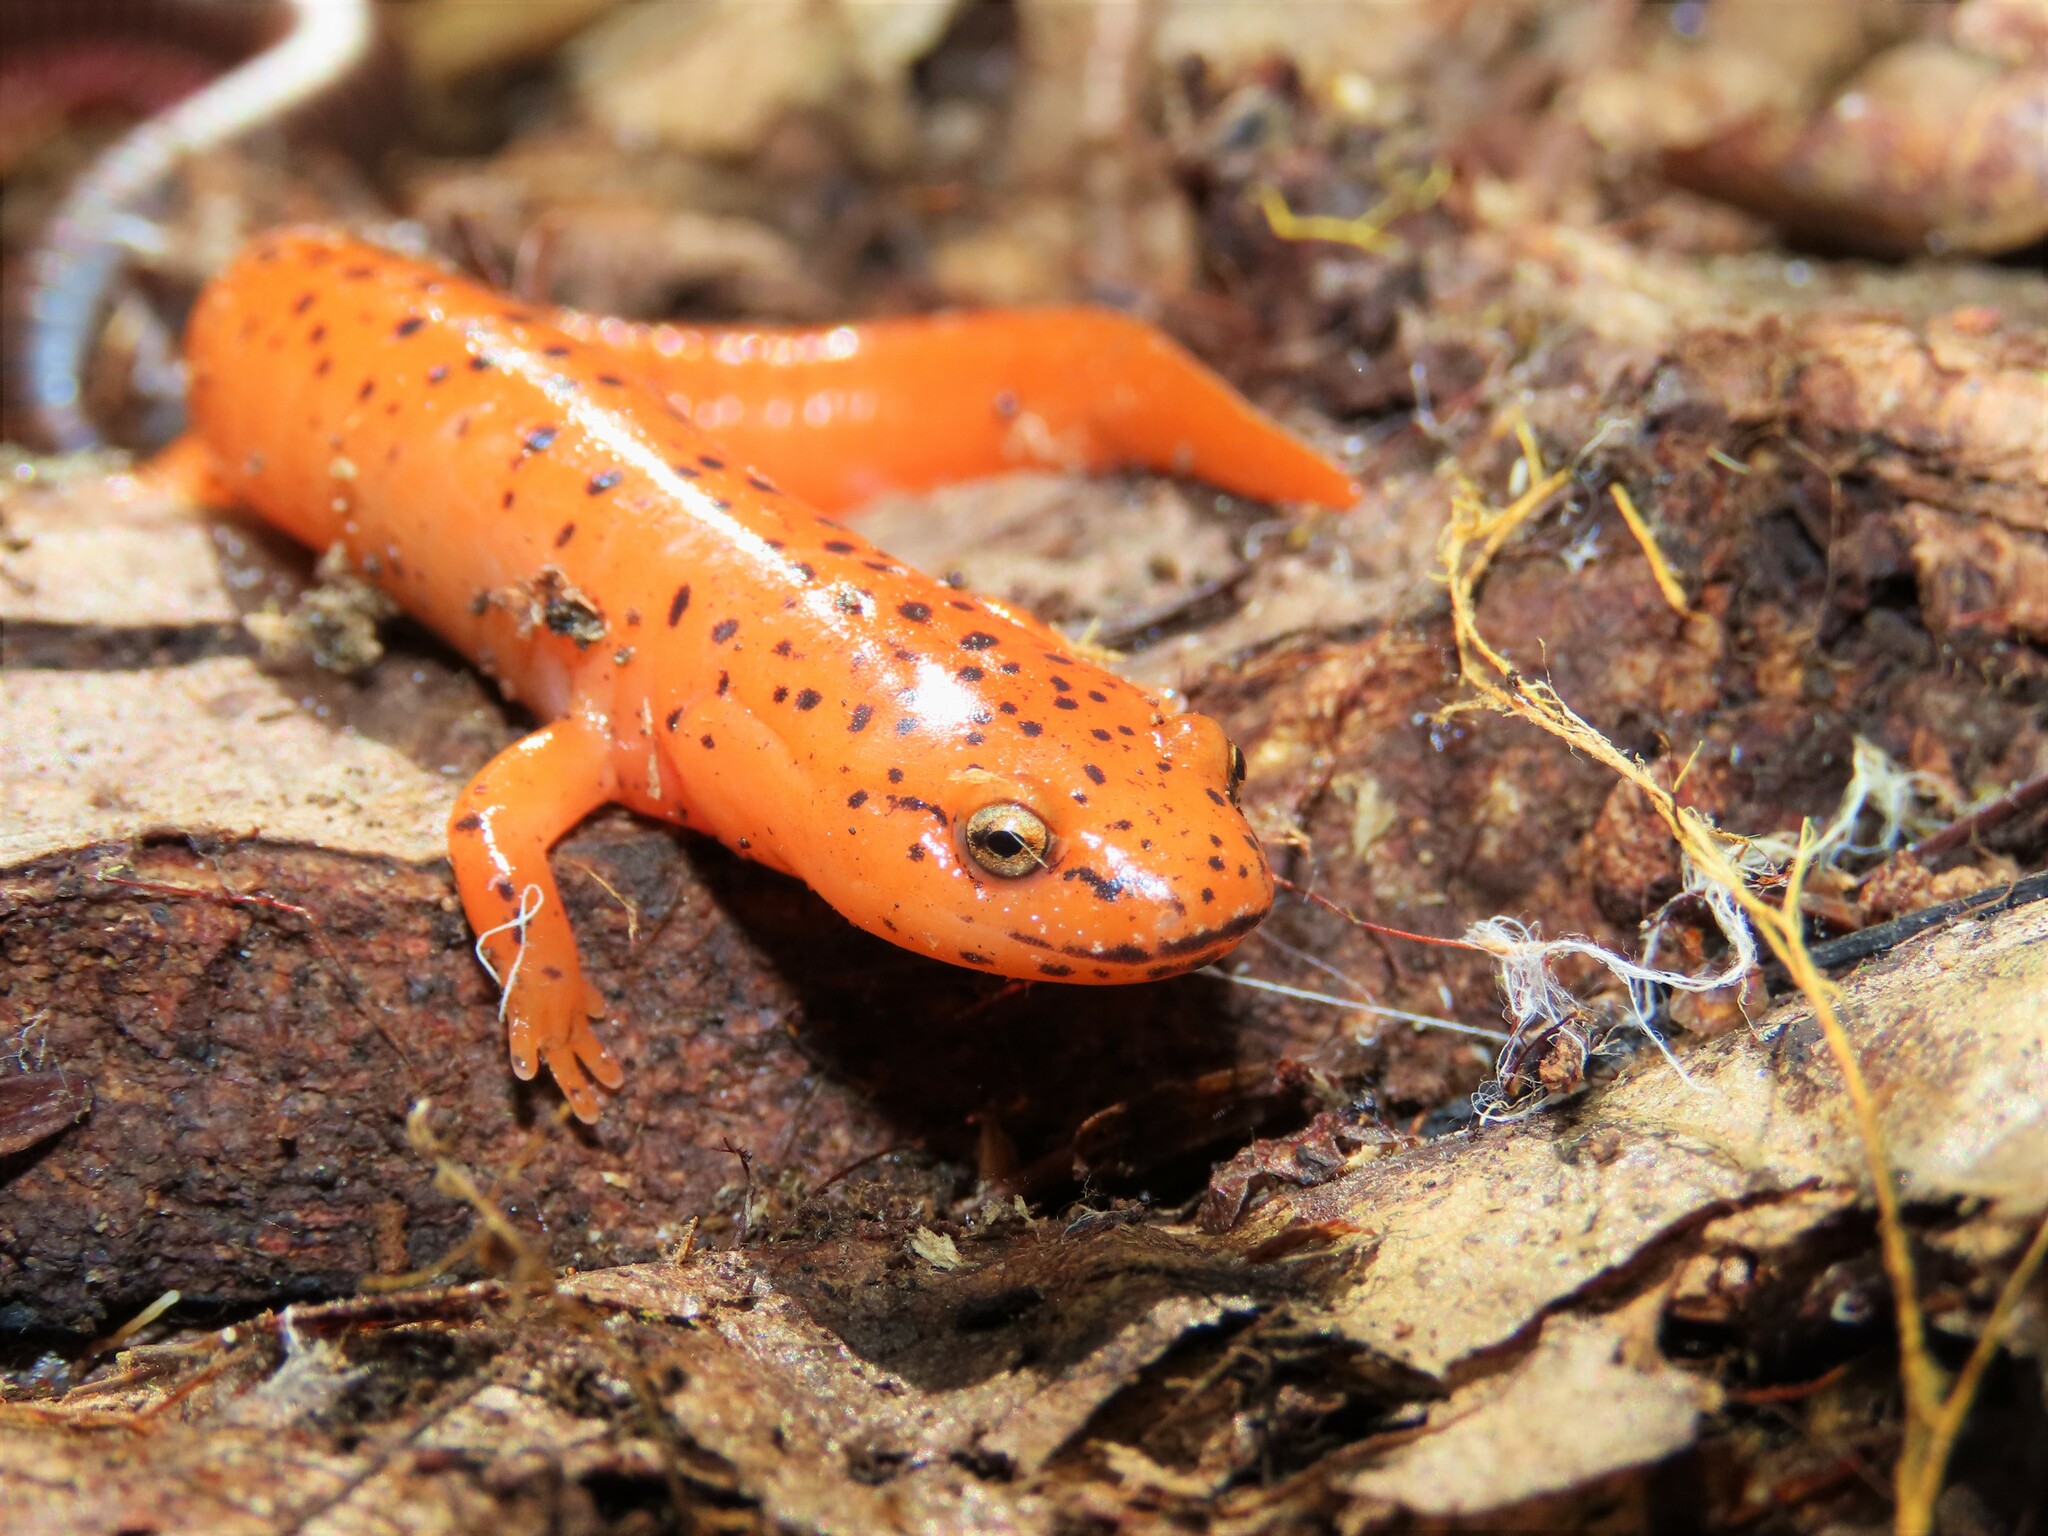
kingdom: Animalia
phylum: Chordata
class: Amphibia
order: Caudata
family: Plethodontidae
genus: Pseudotriton
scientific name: Pseudotriton ruber
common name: Red salamander
